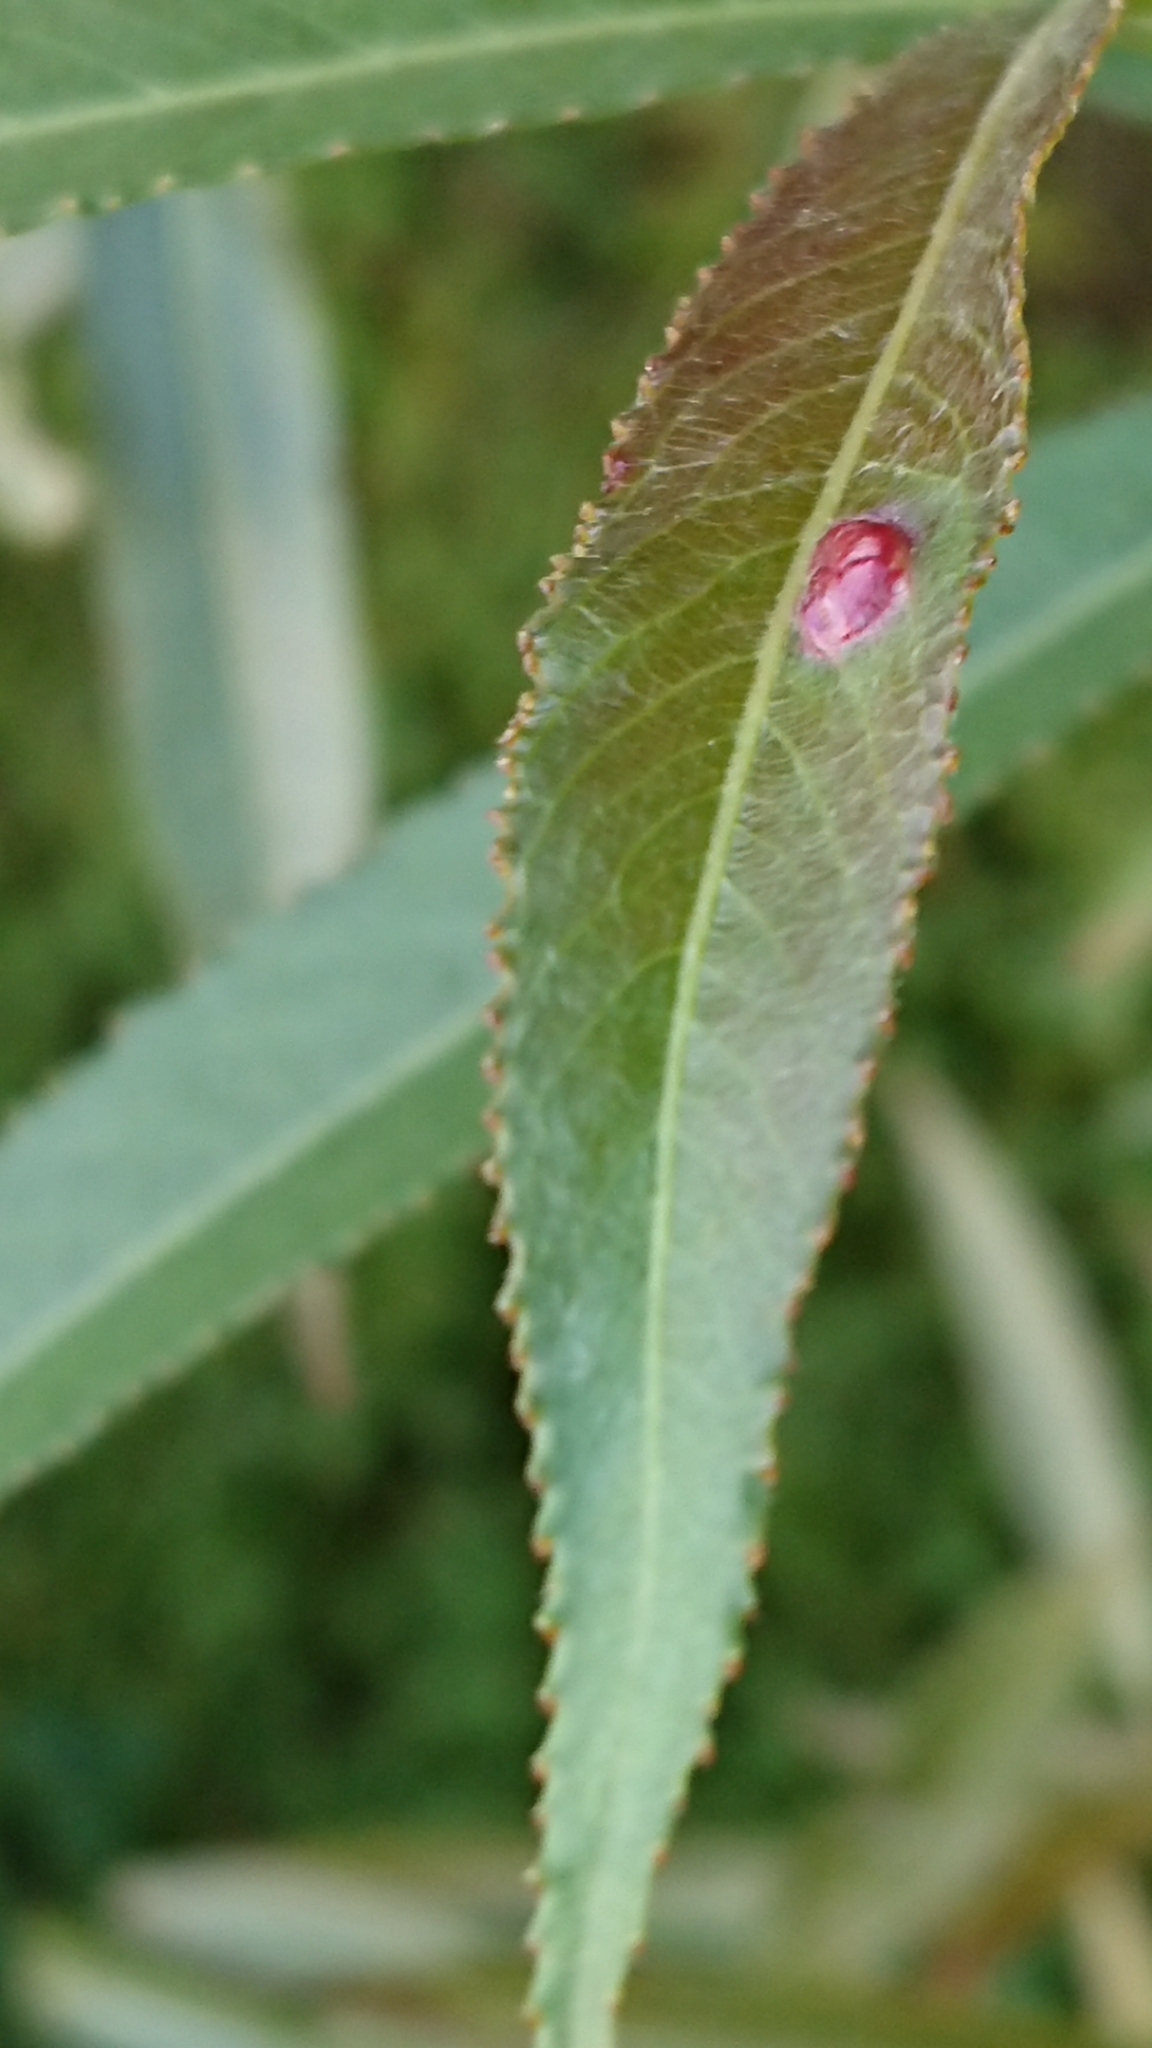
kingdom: Animalia
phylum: Arthropoda
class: Insecta
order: Hymenoptera
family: Tenthredinidae
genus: Pontania
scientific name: Pontania proxima
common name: Common sawfly
